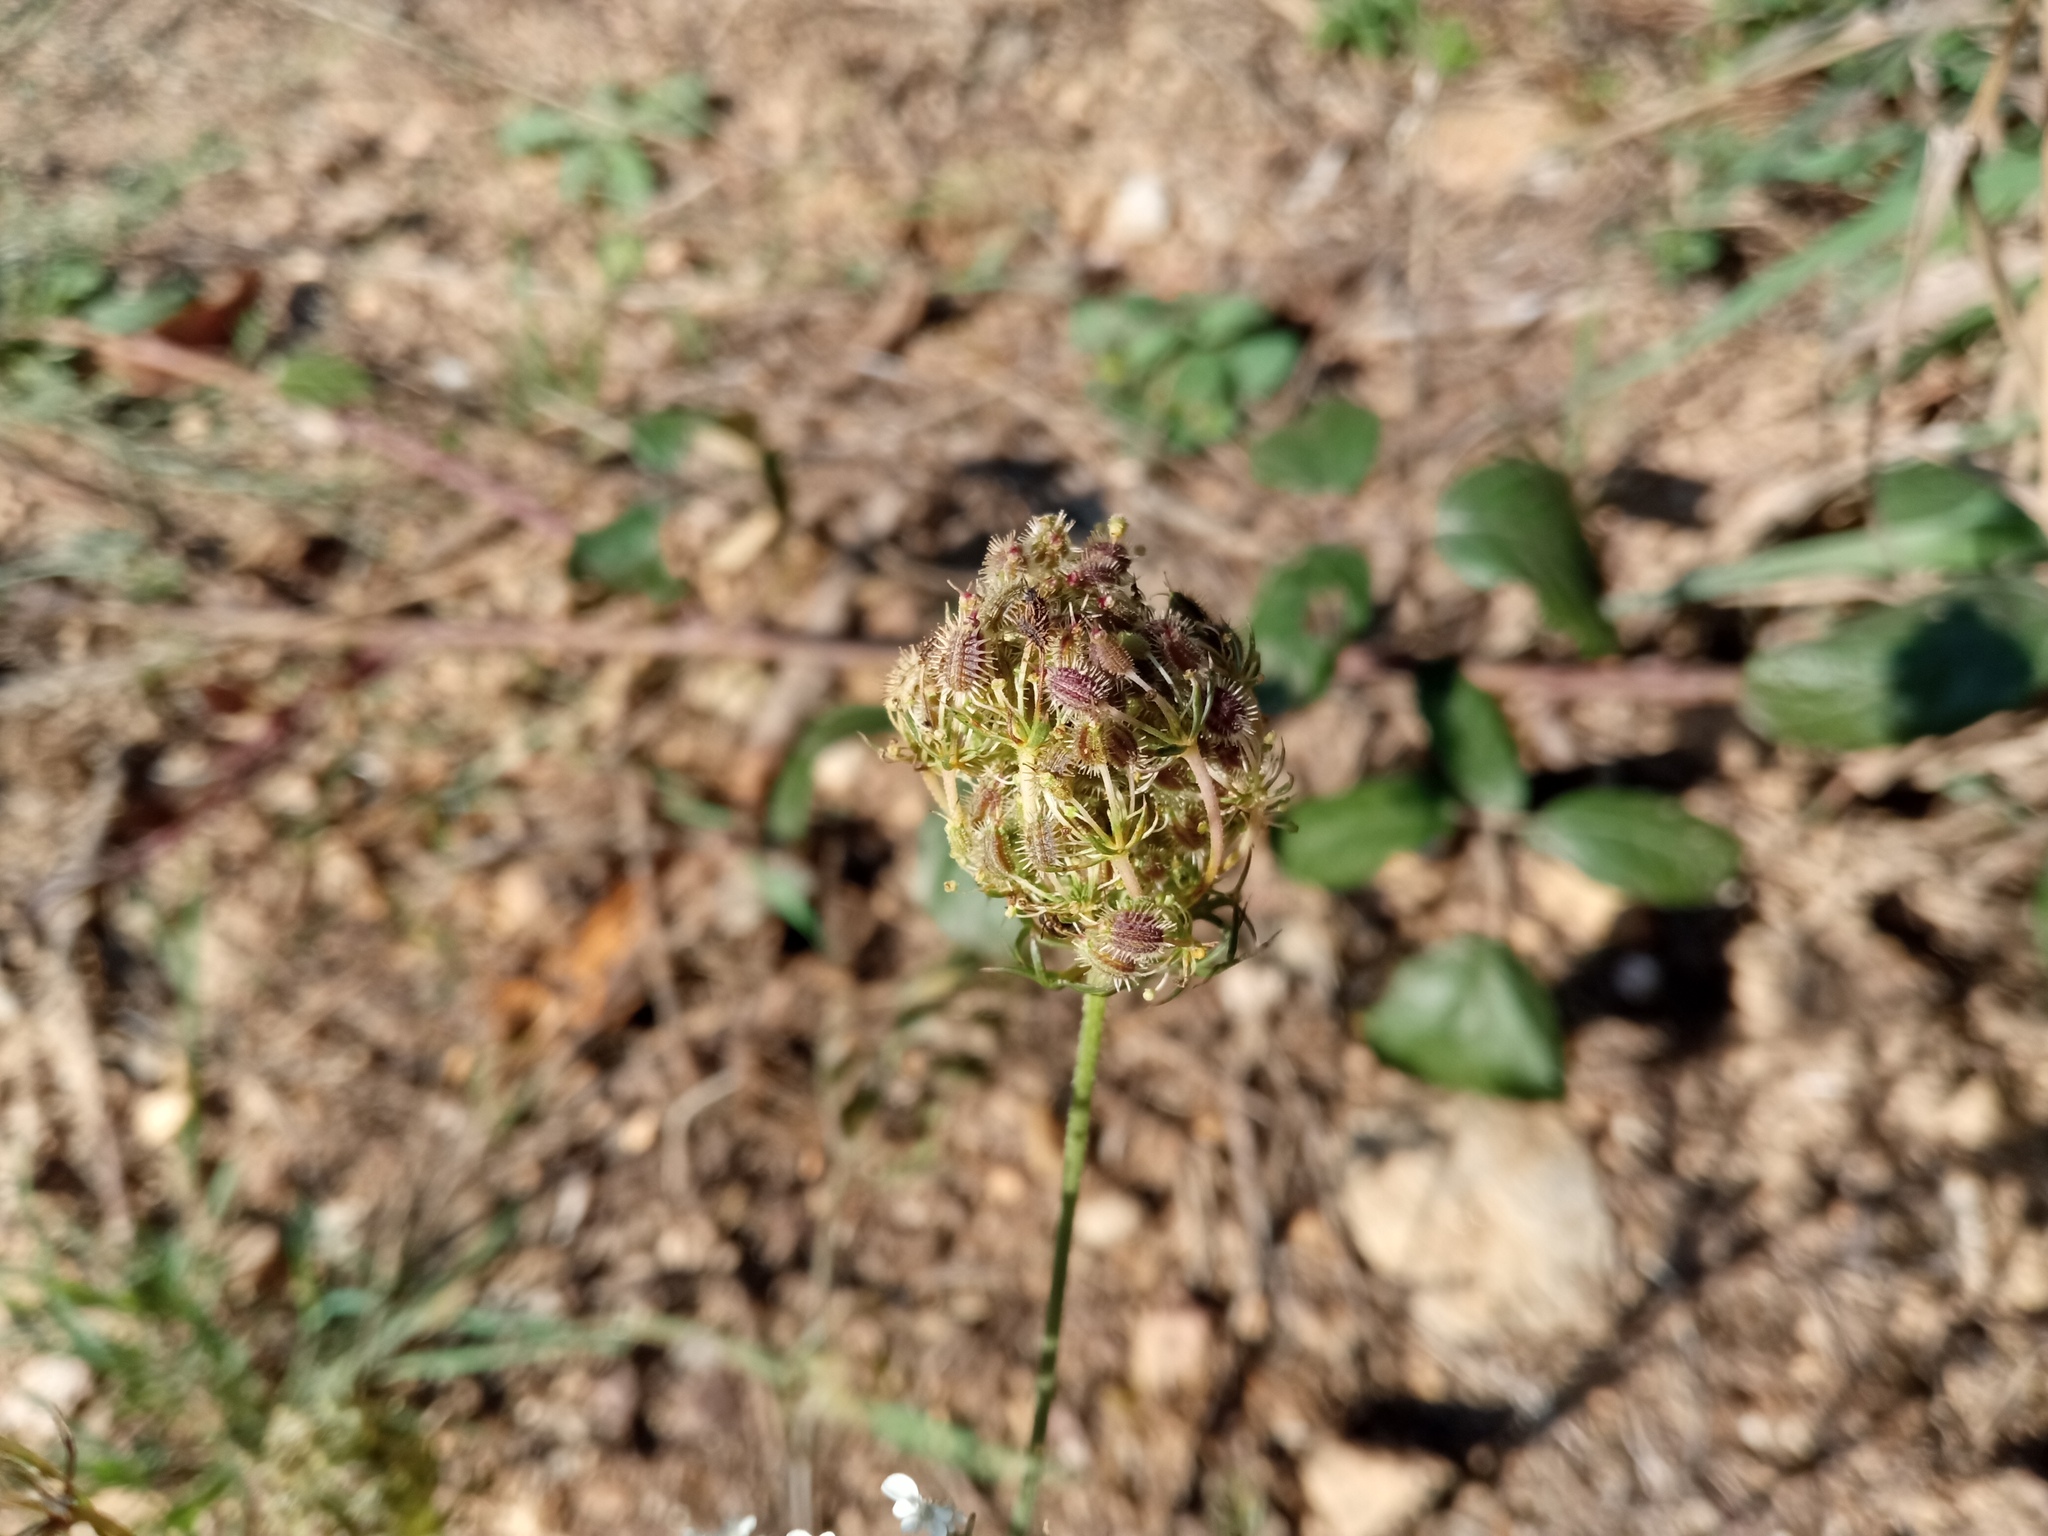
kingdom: Plantae
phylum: Tracheophyta
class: Magnoliopsida
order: Apiales
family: Apiaceae
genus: Daucus
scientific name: Daucus carota
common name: Wild carrot
